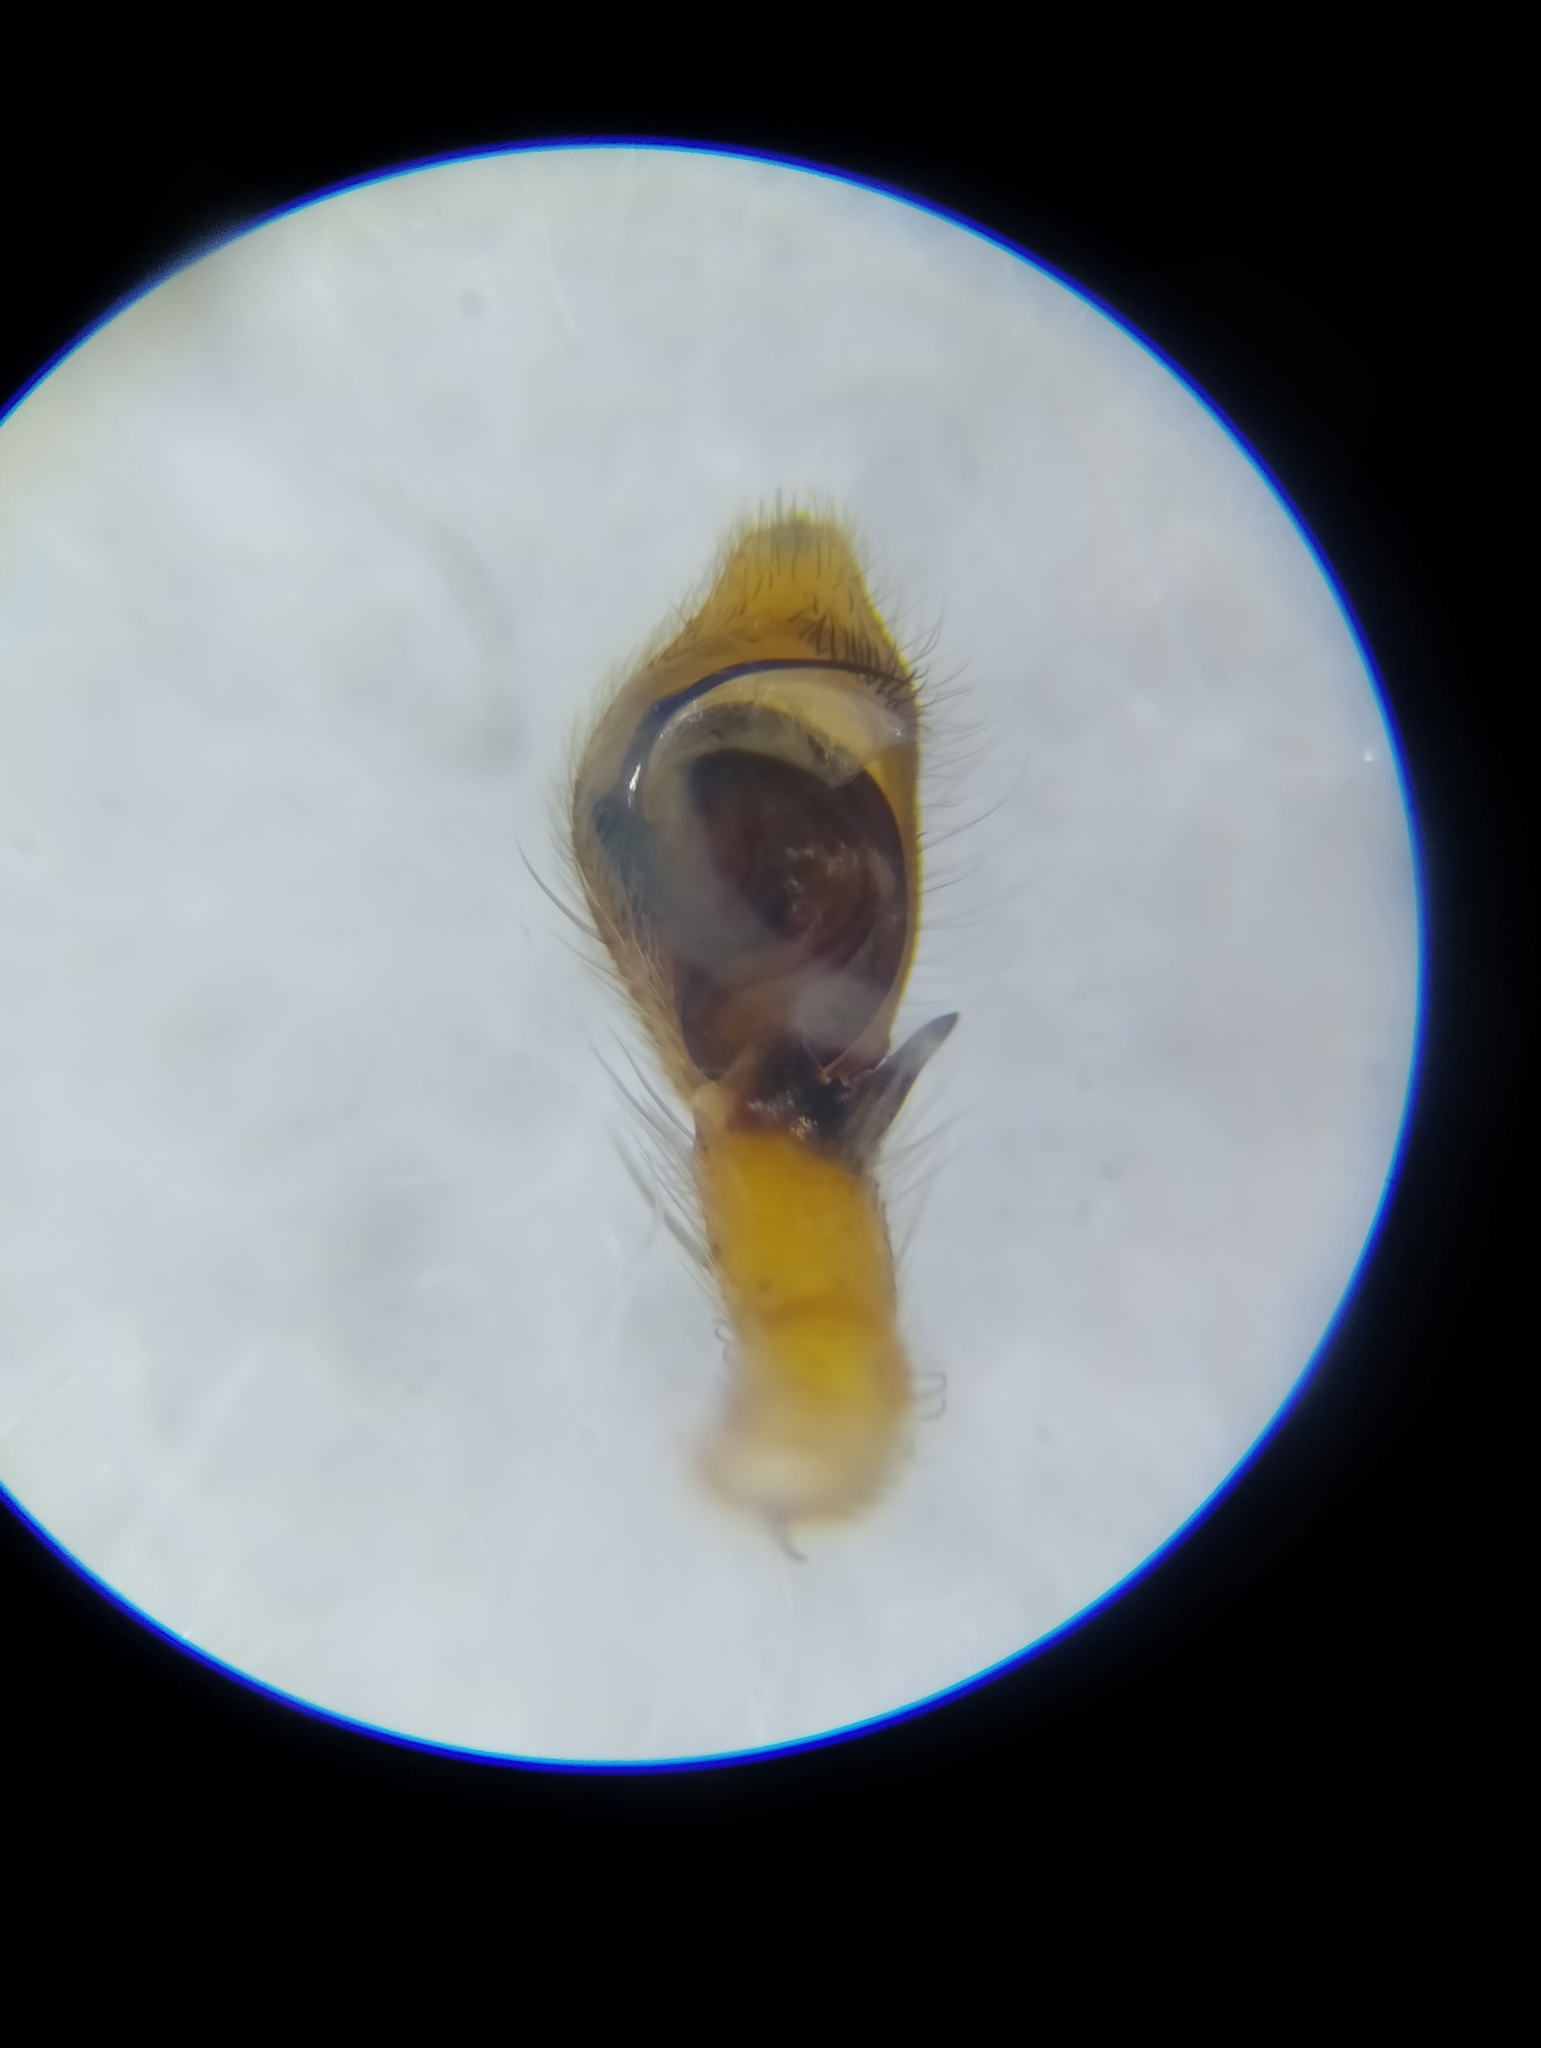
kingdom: Animalia
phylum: Arthropoda
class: Arachnida
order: Araneae
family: Philodromidae
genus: Philodromus
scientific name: Philodromus cespitum
